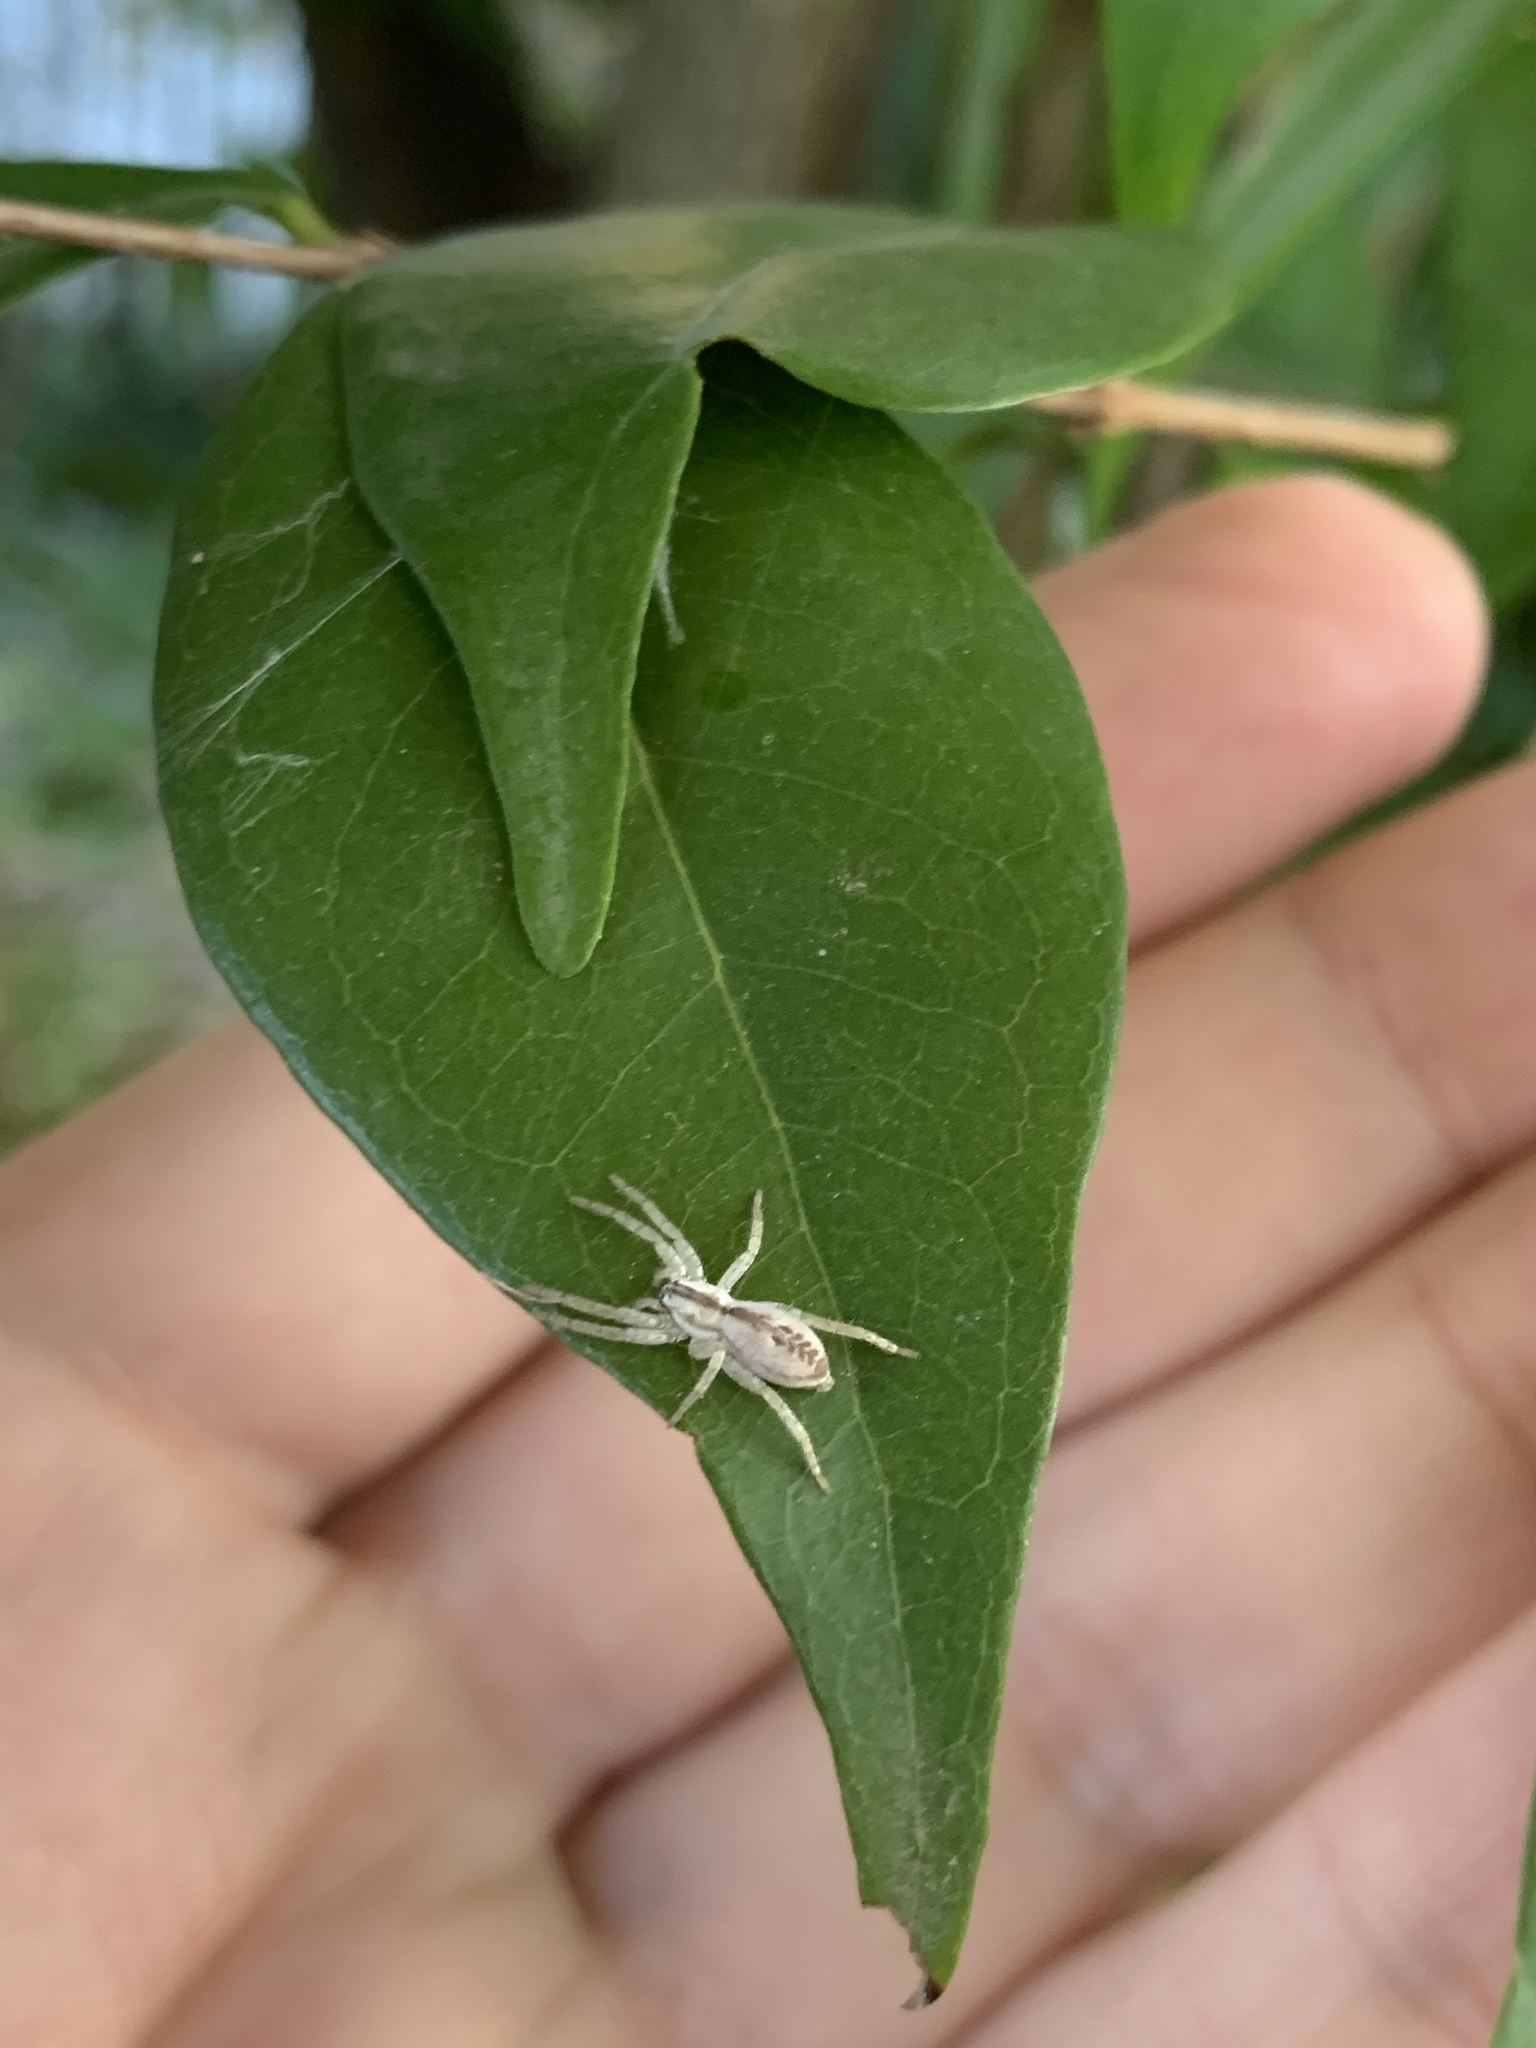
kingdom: Animalia
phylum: Arthropoda
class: Arachnida
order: Araneae
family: Anyphaenidae
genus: Arachosia
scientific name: Arachosia praesignis
